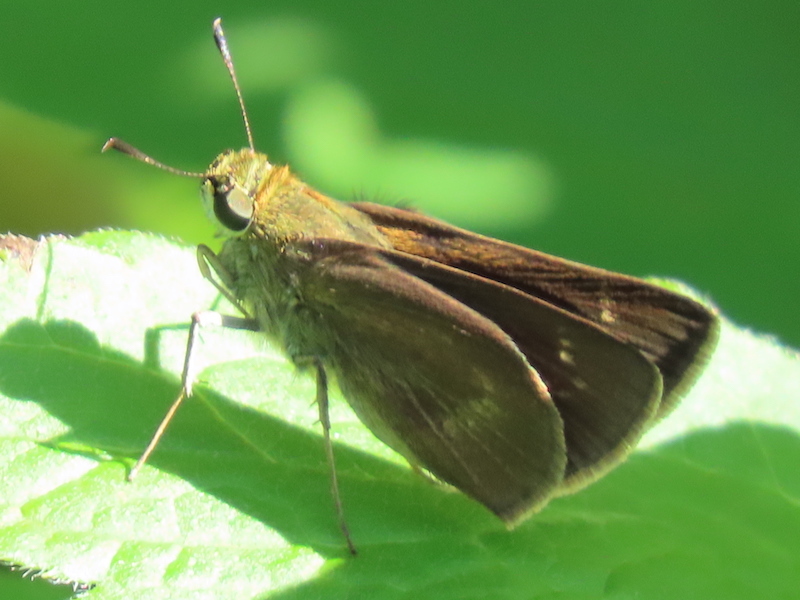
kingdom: Animalia
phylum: Arthropoda
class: Insecta
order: Lepidoptera
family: Hesperiidae
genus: Polites
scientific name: Polites egeremet
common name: Northern broken-dash
